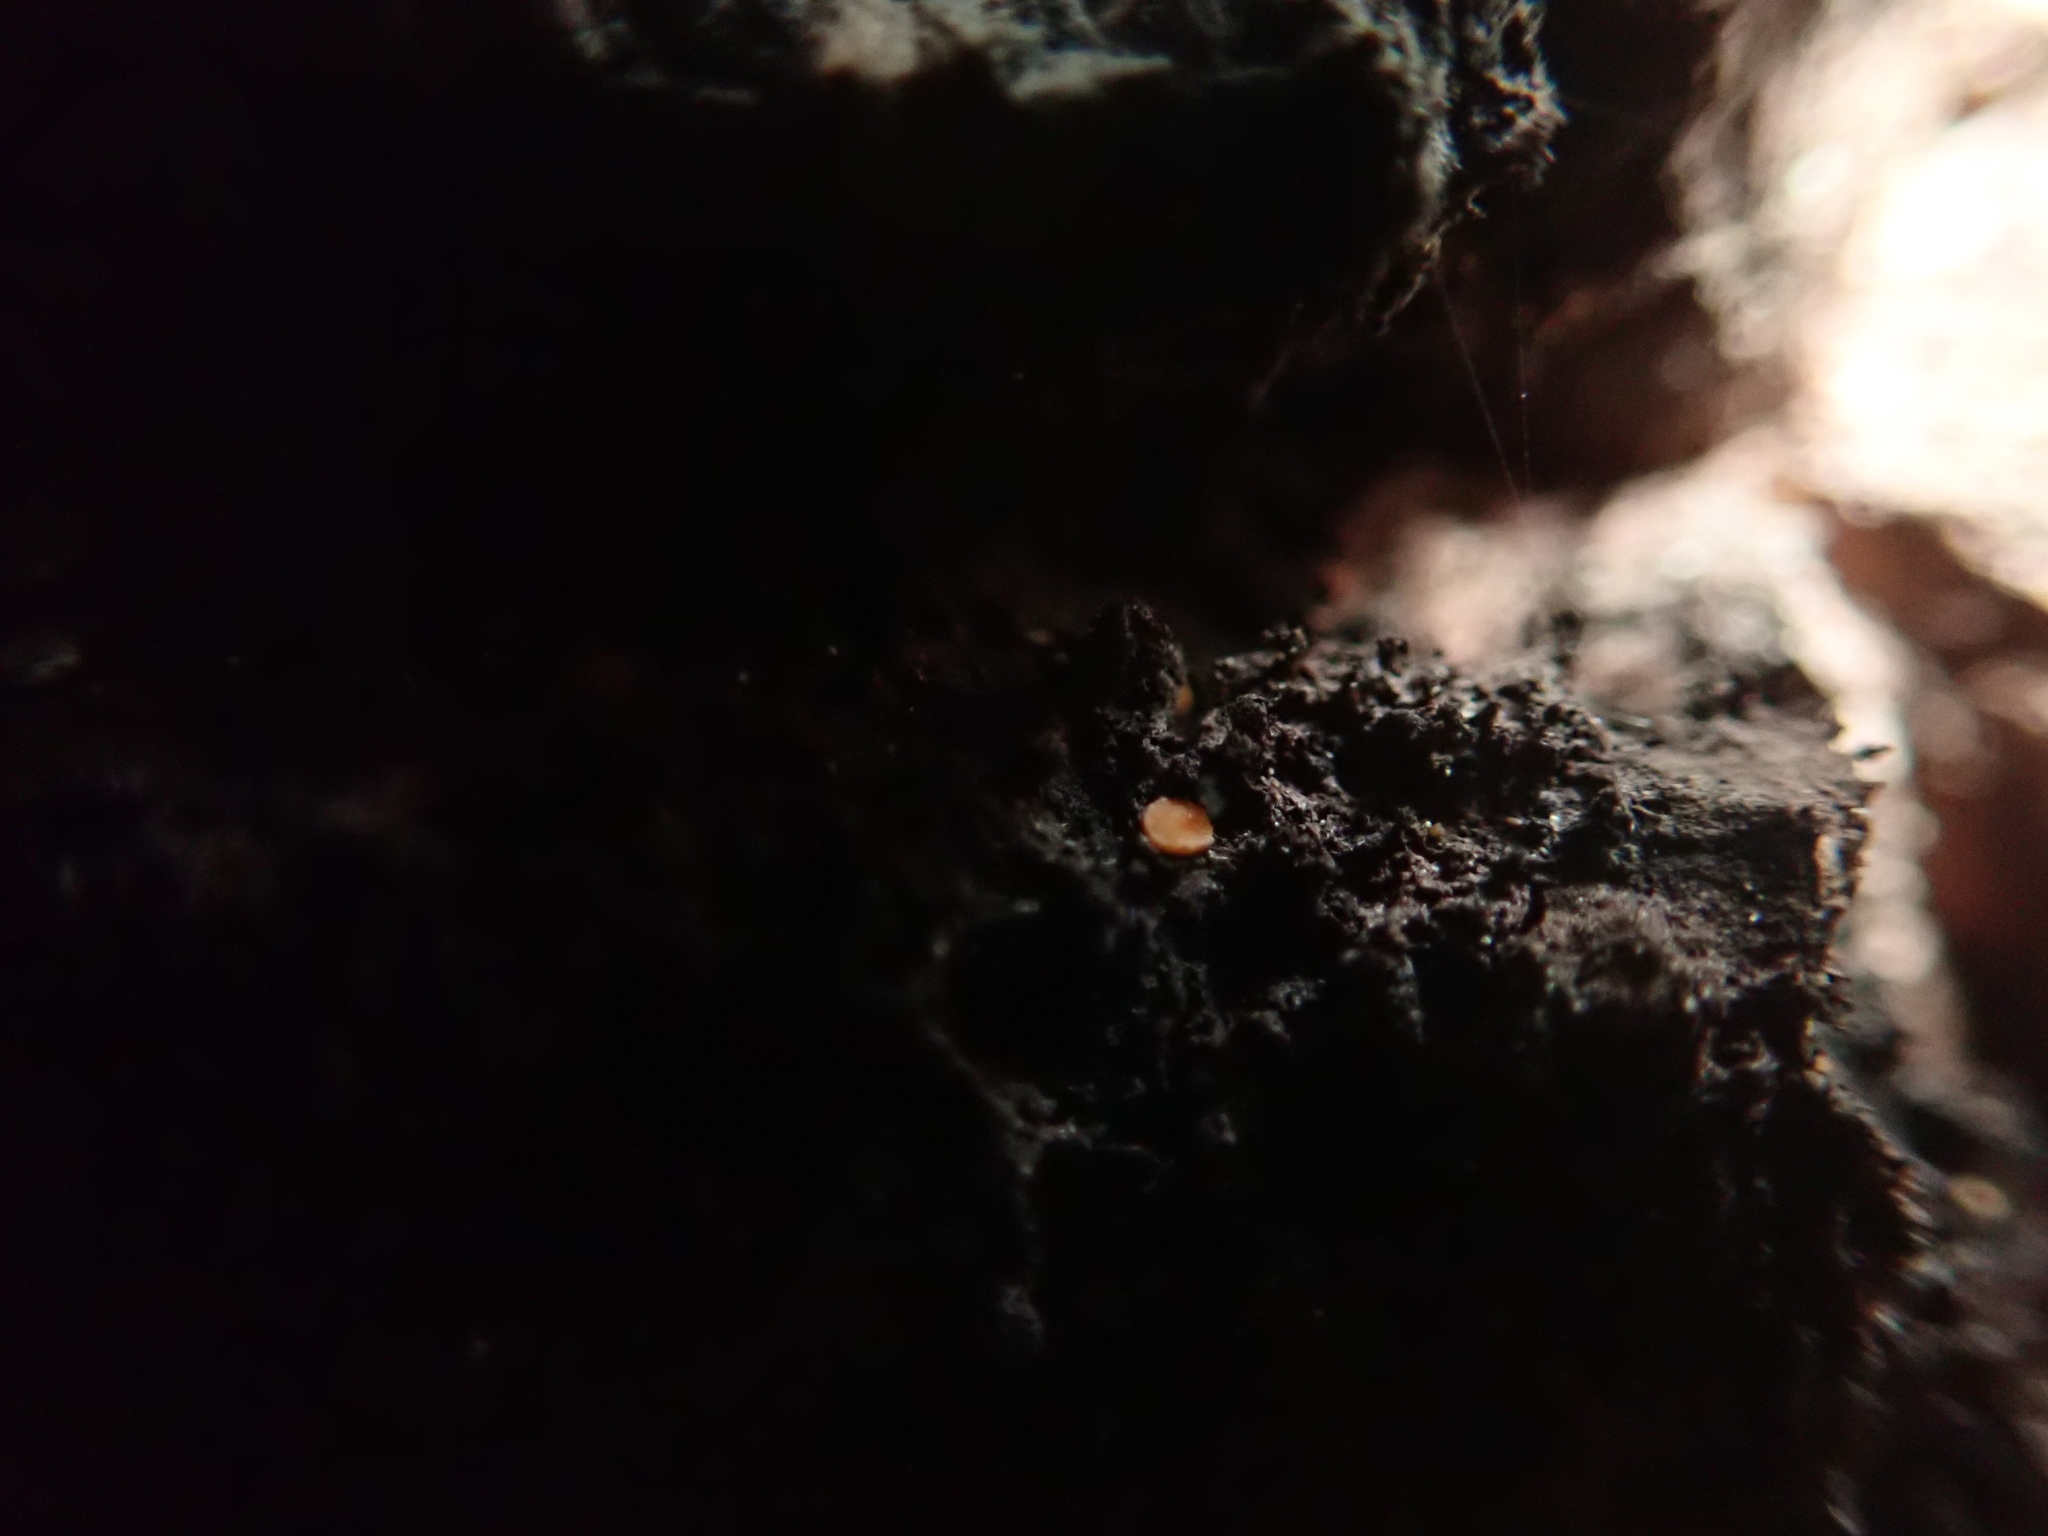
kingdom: Fungi
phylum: Ascomycota
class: Sareomycetes
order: Sareales
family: Sareaceae
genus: Sarea
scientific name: Sarea resinae
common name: Sarea lichen
